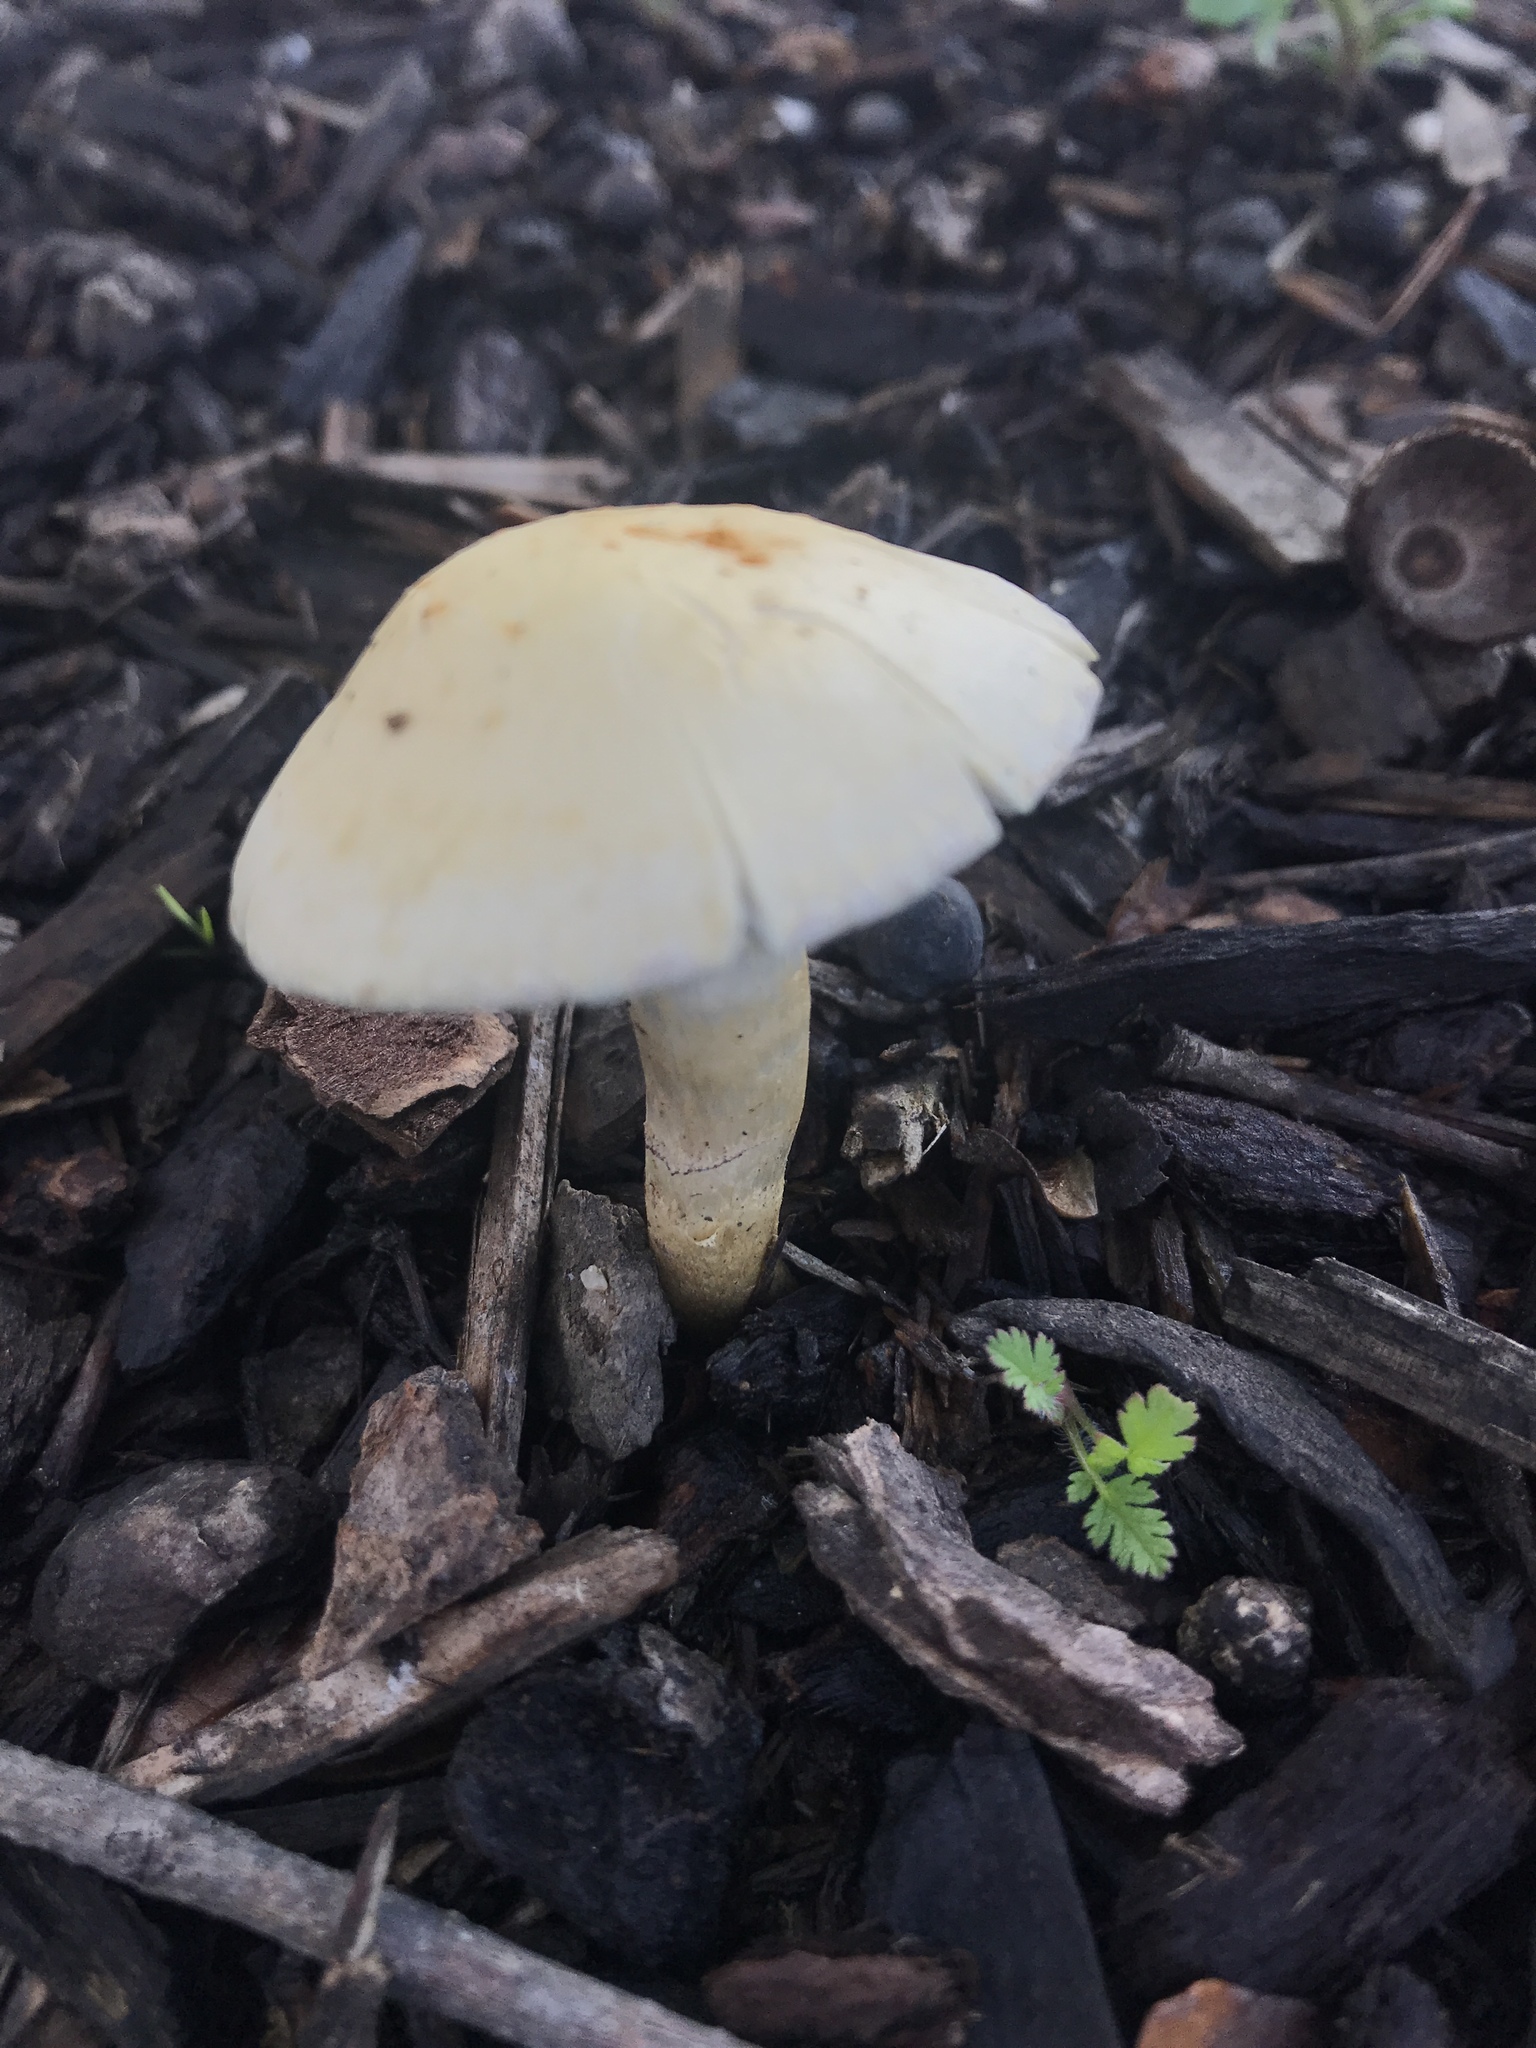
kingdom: Fungi
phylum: Basidiomycota
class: Agaricomycetes
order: Agaricales
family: Strophariaceae
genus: Leratiomyces
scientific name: Leratiomyces percevalii
